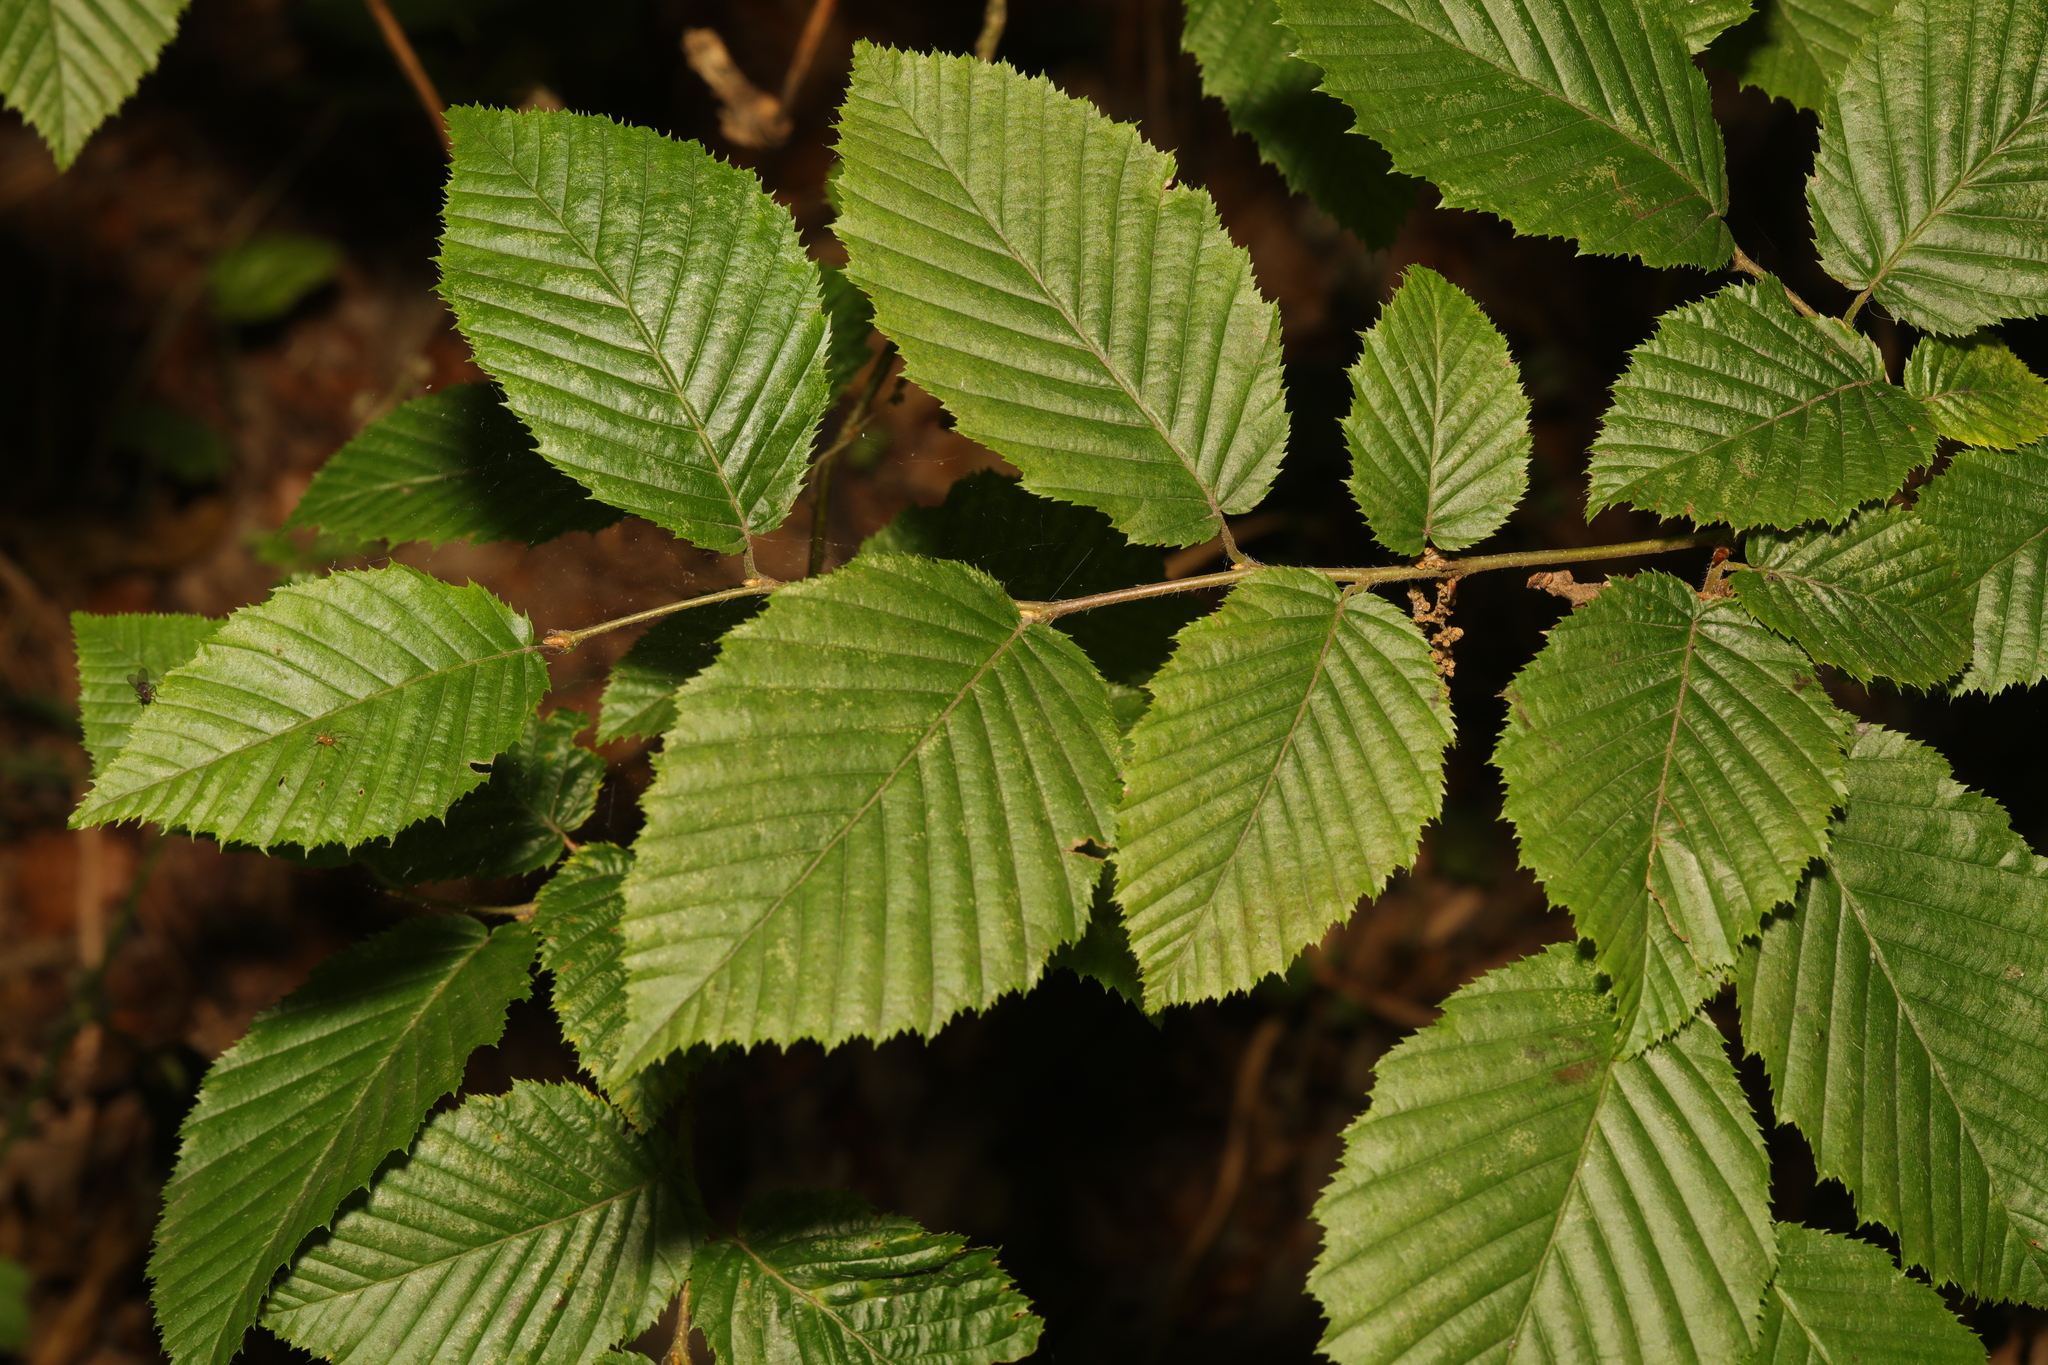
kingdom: Plantae
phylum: Tracheophyta
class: Magnoliopsida
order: Fagales
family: Betulaceae
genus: Carpinus
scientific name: Carpinus betulus
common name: Hornbeam
